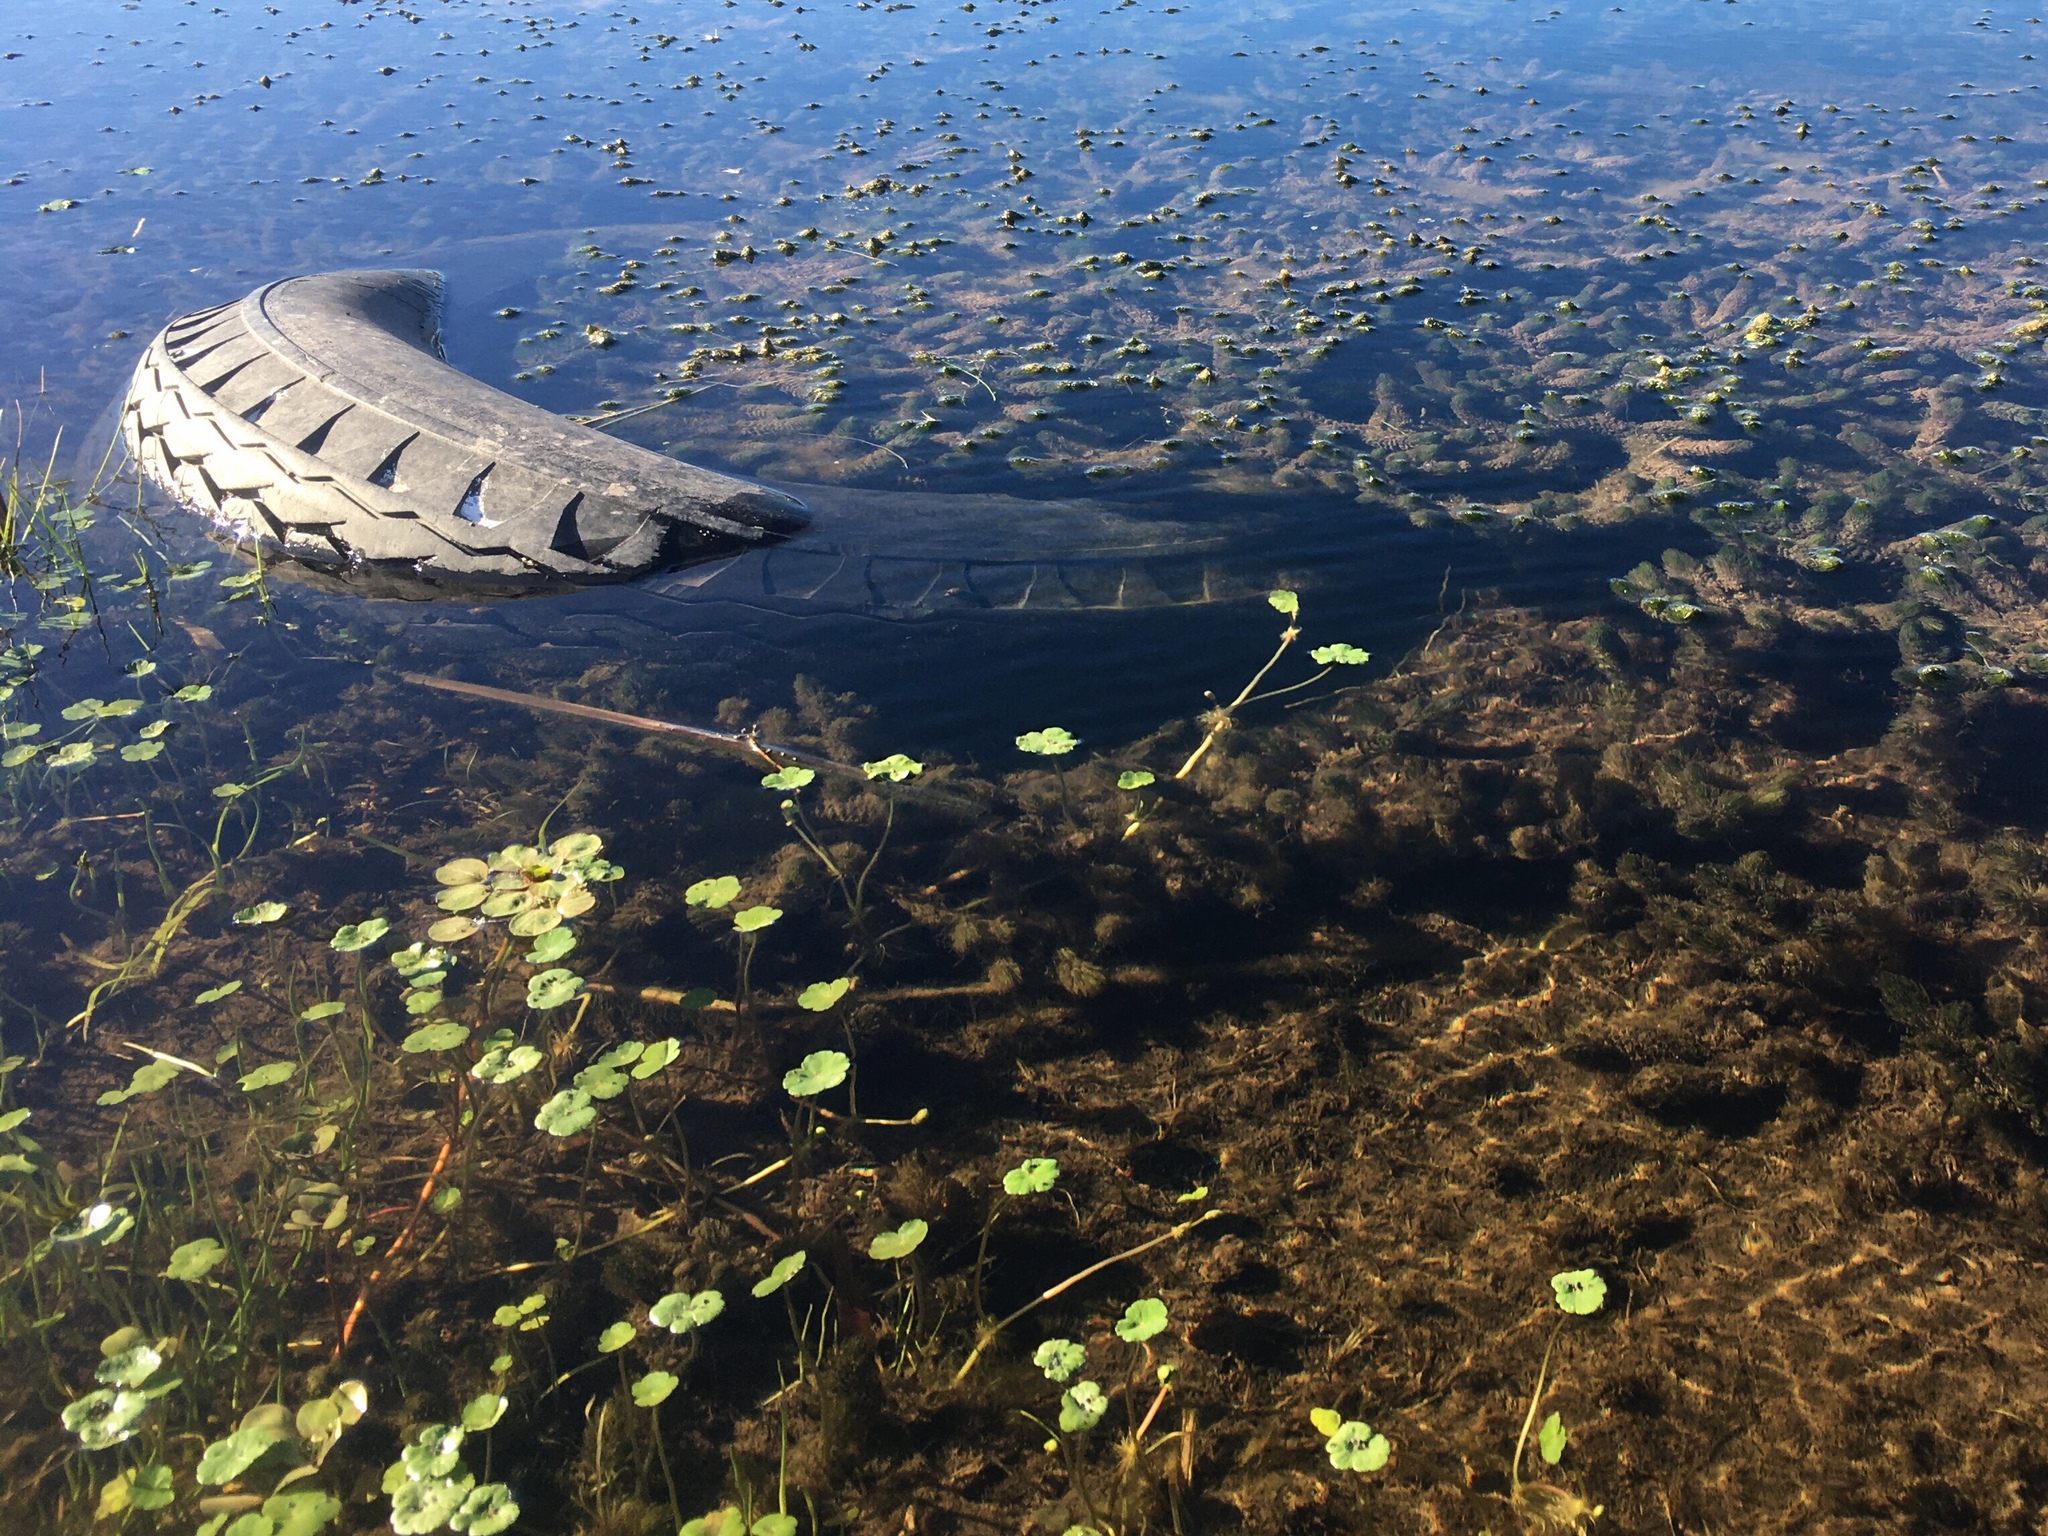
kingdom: Plantae
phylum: Tracheophyta
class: Magnoliopsida
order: Saxifragales
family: Haloragaceae
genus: Myriophyllum
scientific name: Myriophyllum quitense
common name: Andean water milfoil
